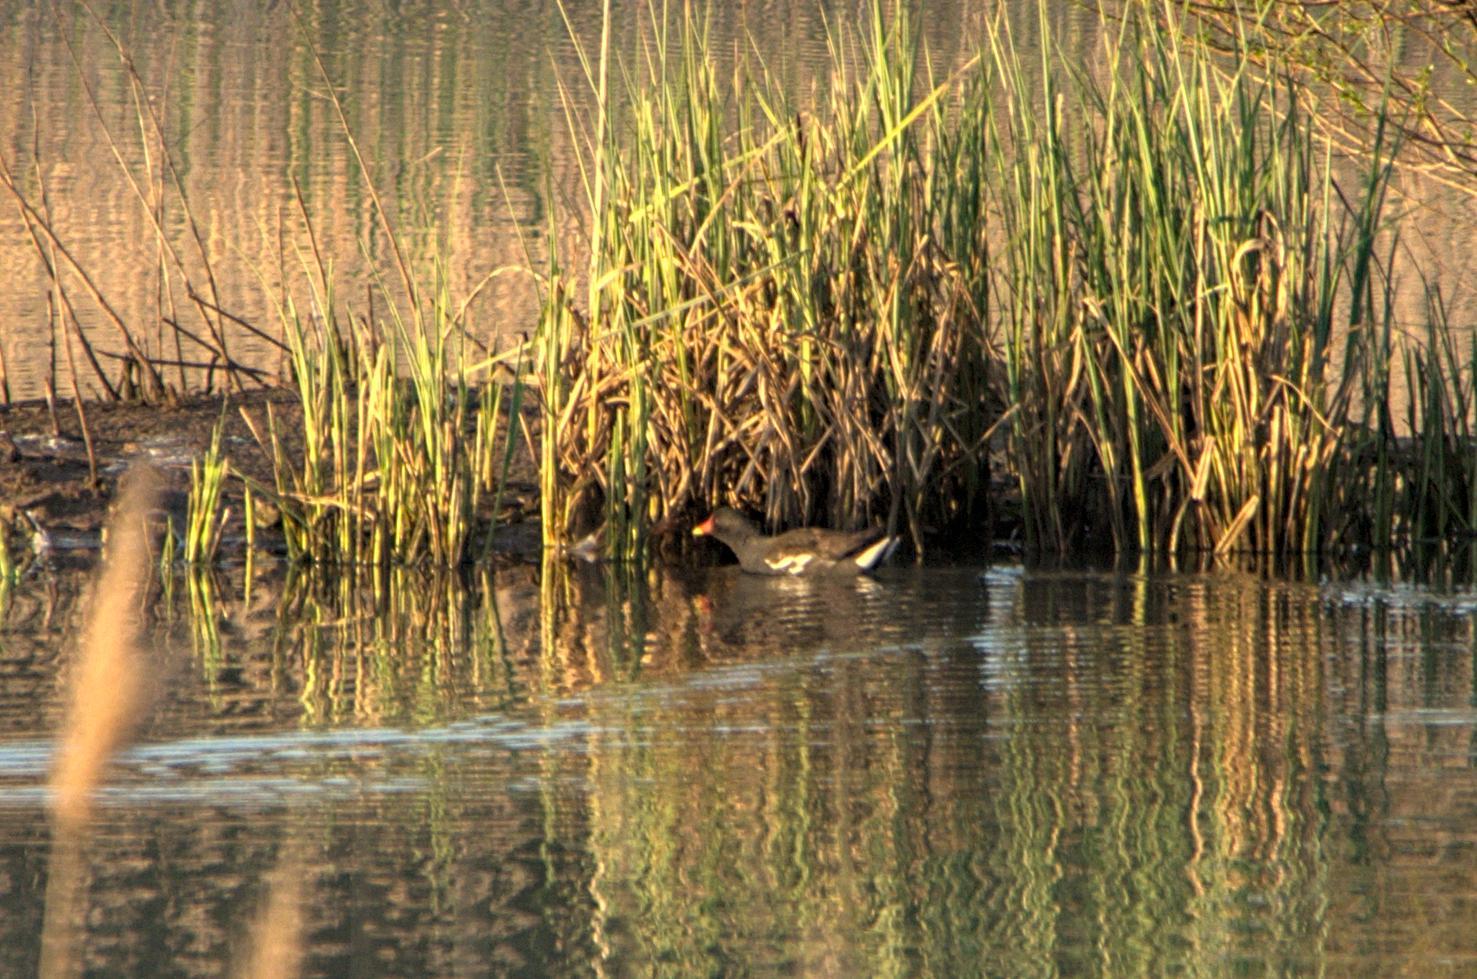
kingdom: Animalia
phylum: Chordata
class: Aves
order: Gruiformes
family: Rallidae
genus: Gallinula
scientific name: Gallinula chloropus
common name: Common moorhen
